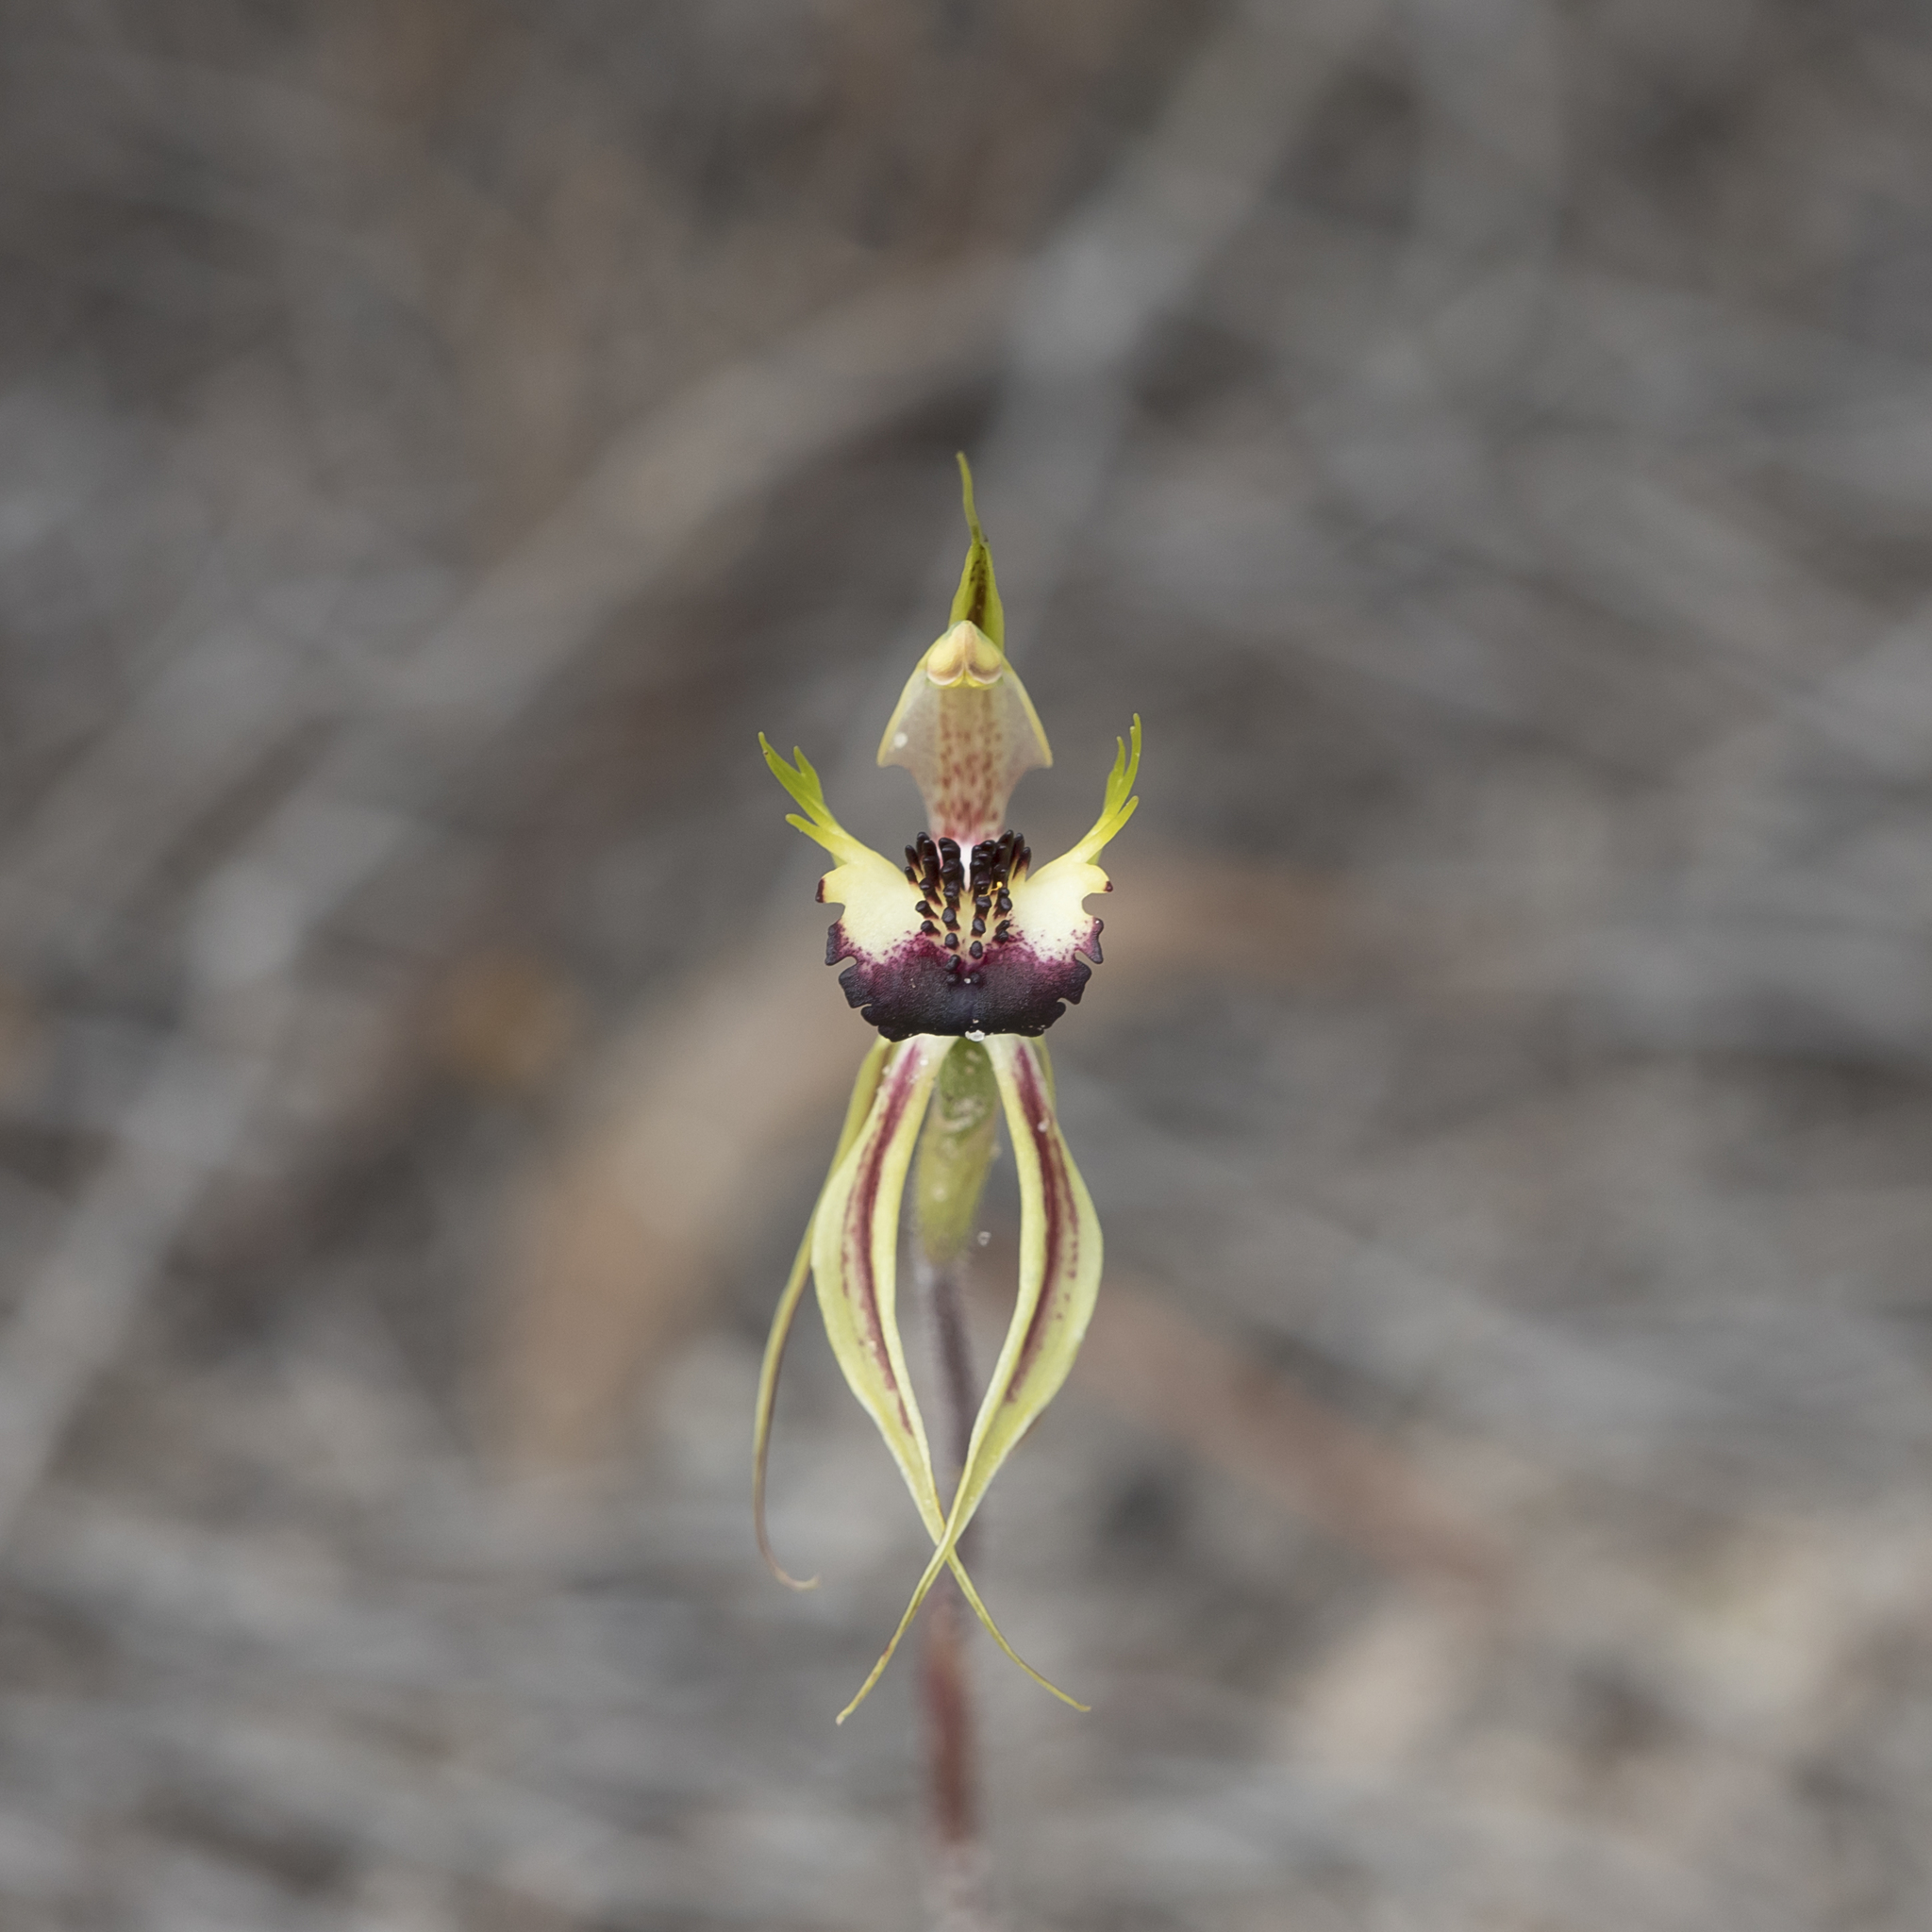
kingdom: Plantae
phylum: Tracheophyta
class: Liliopsida
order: Asparagales
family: Orchidaceae
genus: Caladenia
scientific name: Caladenia stricta
